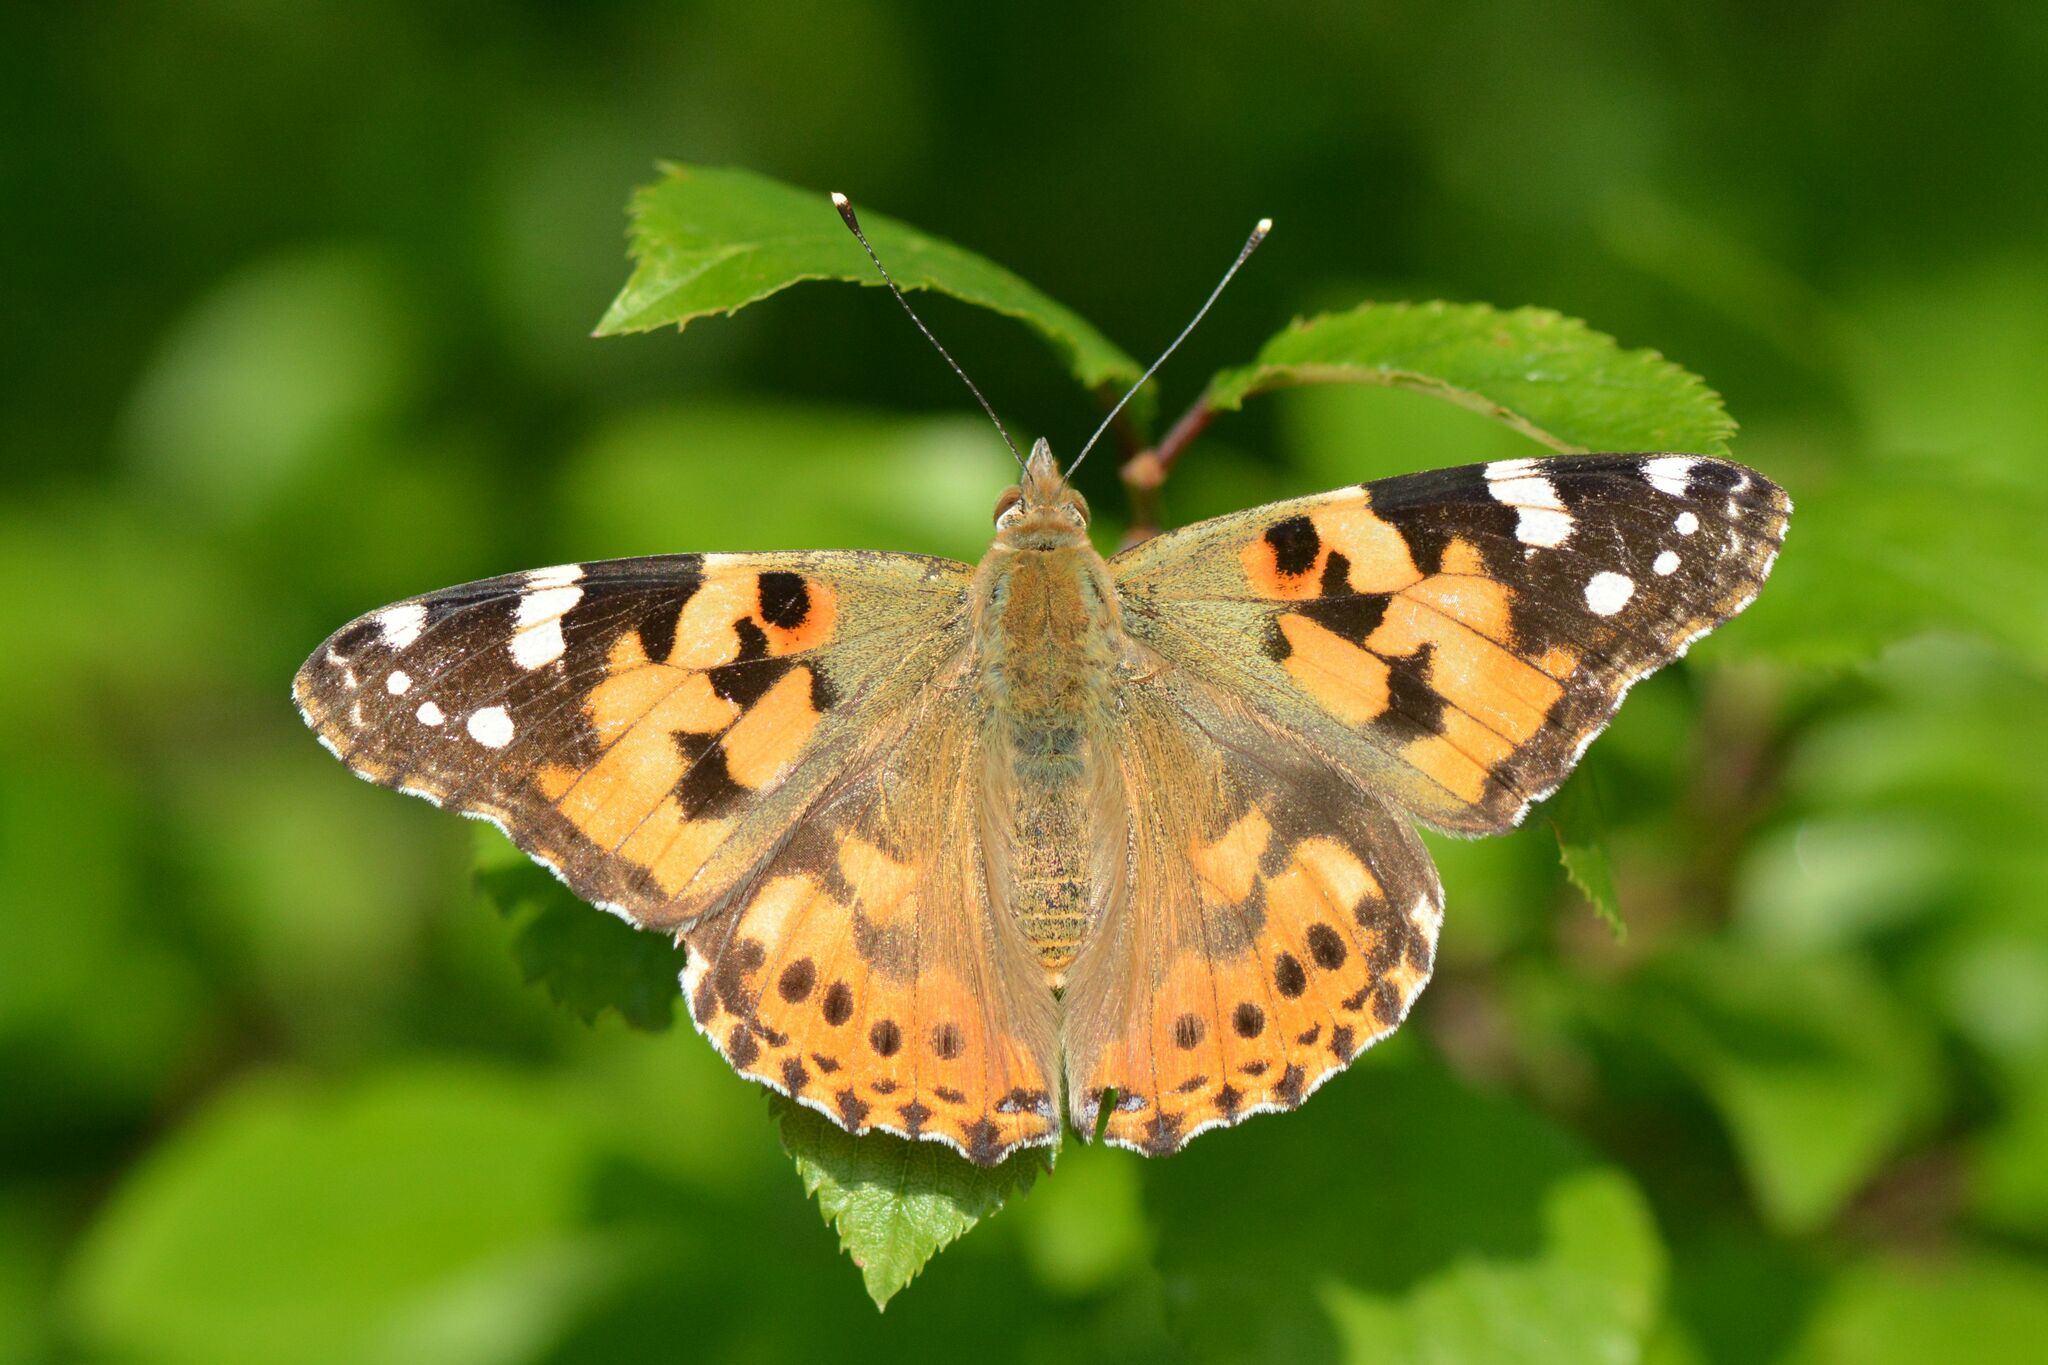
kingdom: Animalia
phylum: Arthropoda
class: Insecta
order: Lepidoptera
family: Nymphalidae
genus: Vanessa
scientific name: Vanessa cardui
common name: Painted lady
